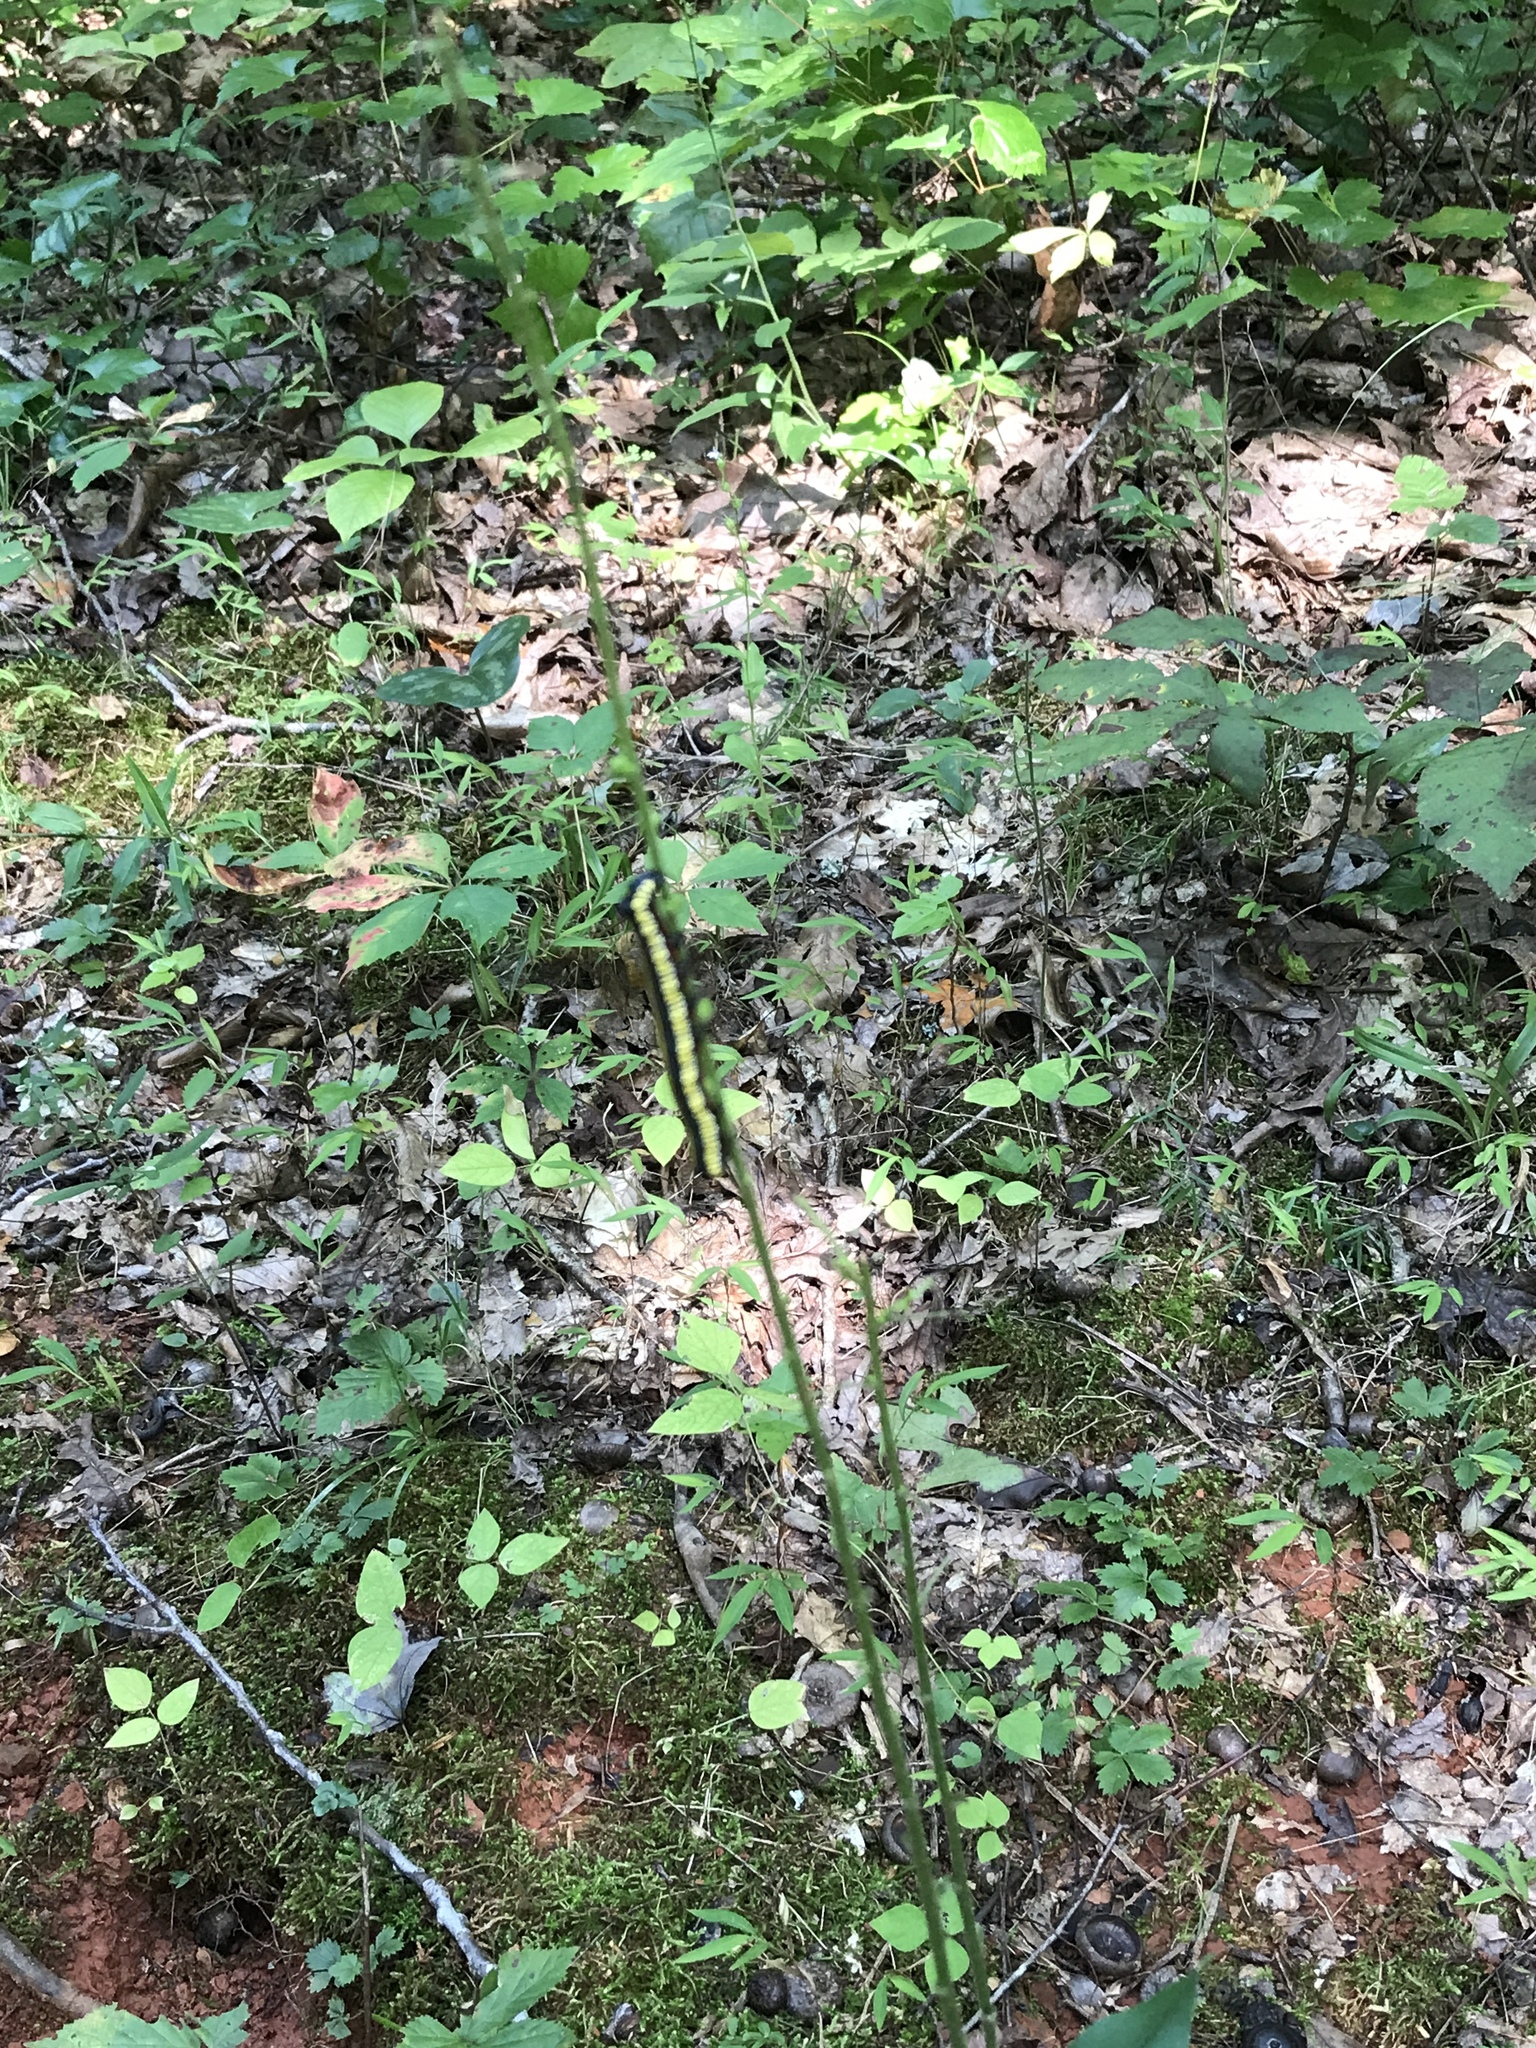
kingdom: Animalia
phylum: Arthropoda
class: Insecta
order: Lepidoptera
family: Noctuidae
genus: Cucullia
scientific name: Cucullia convexipennis
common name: Brown-hooded owlet
